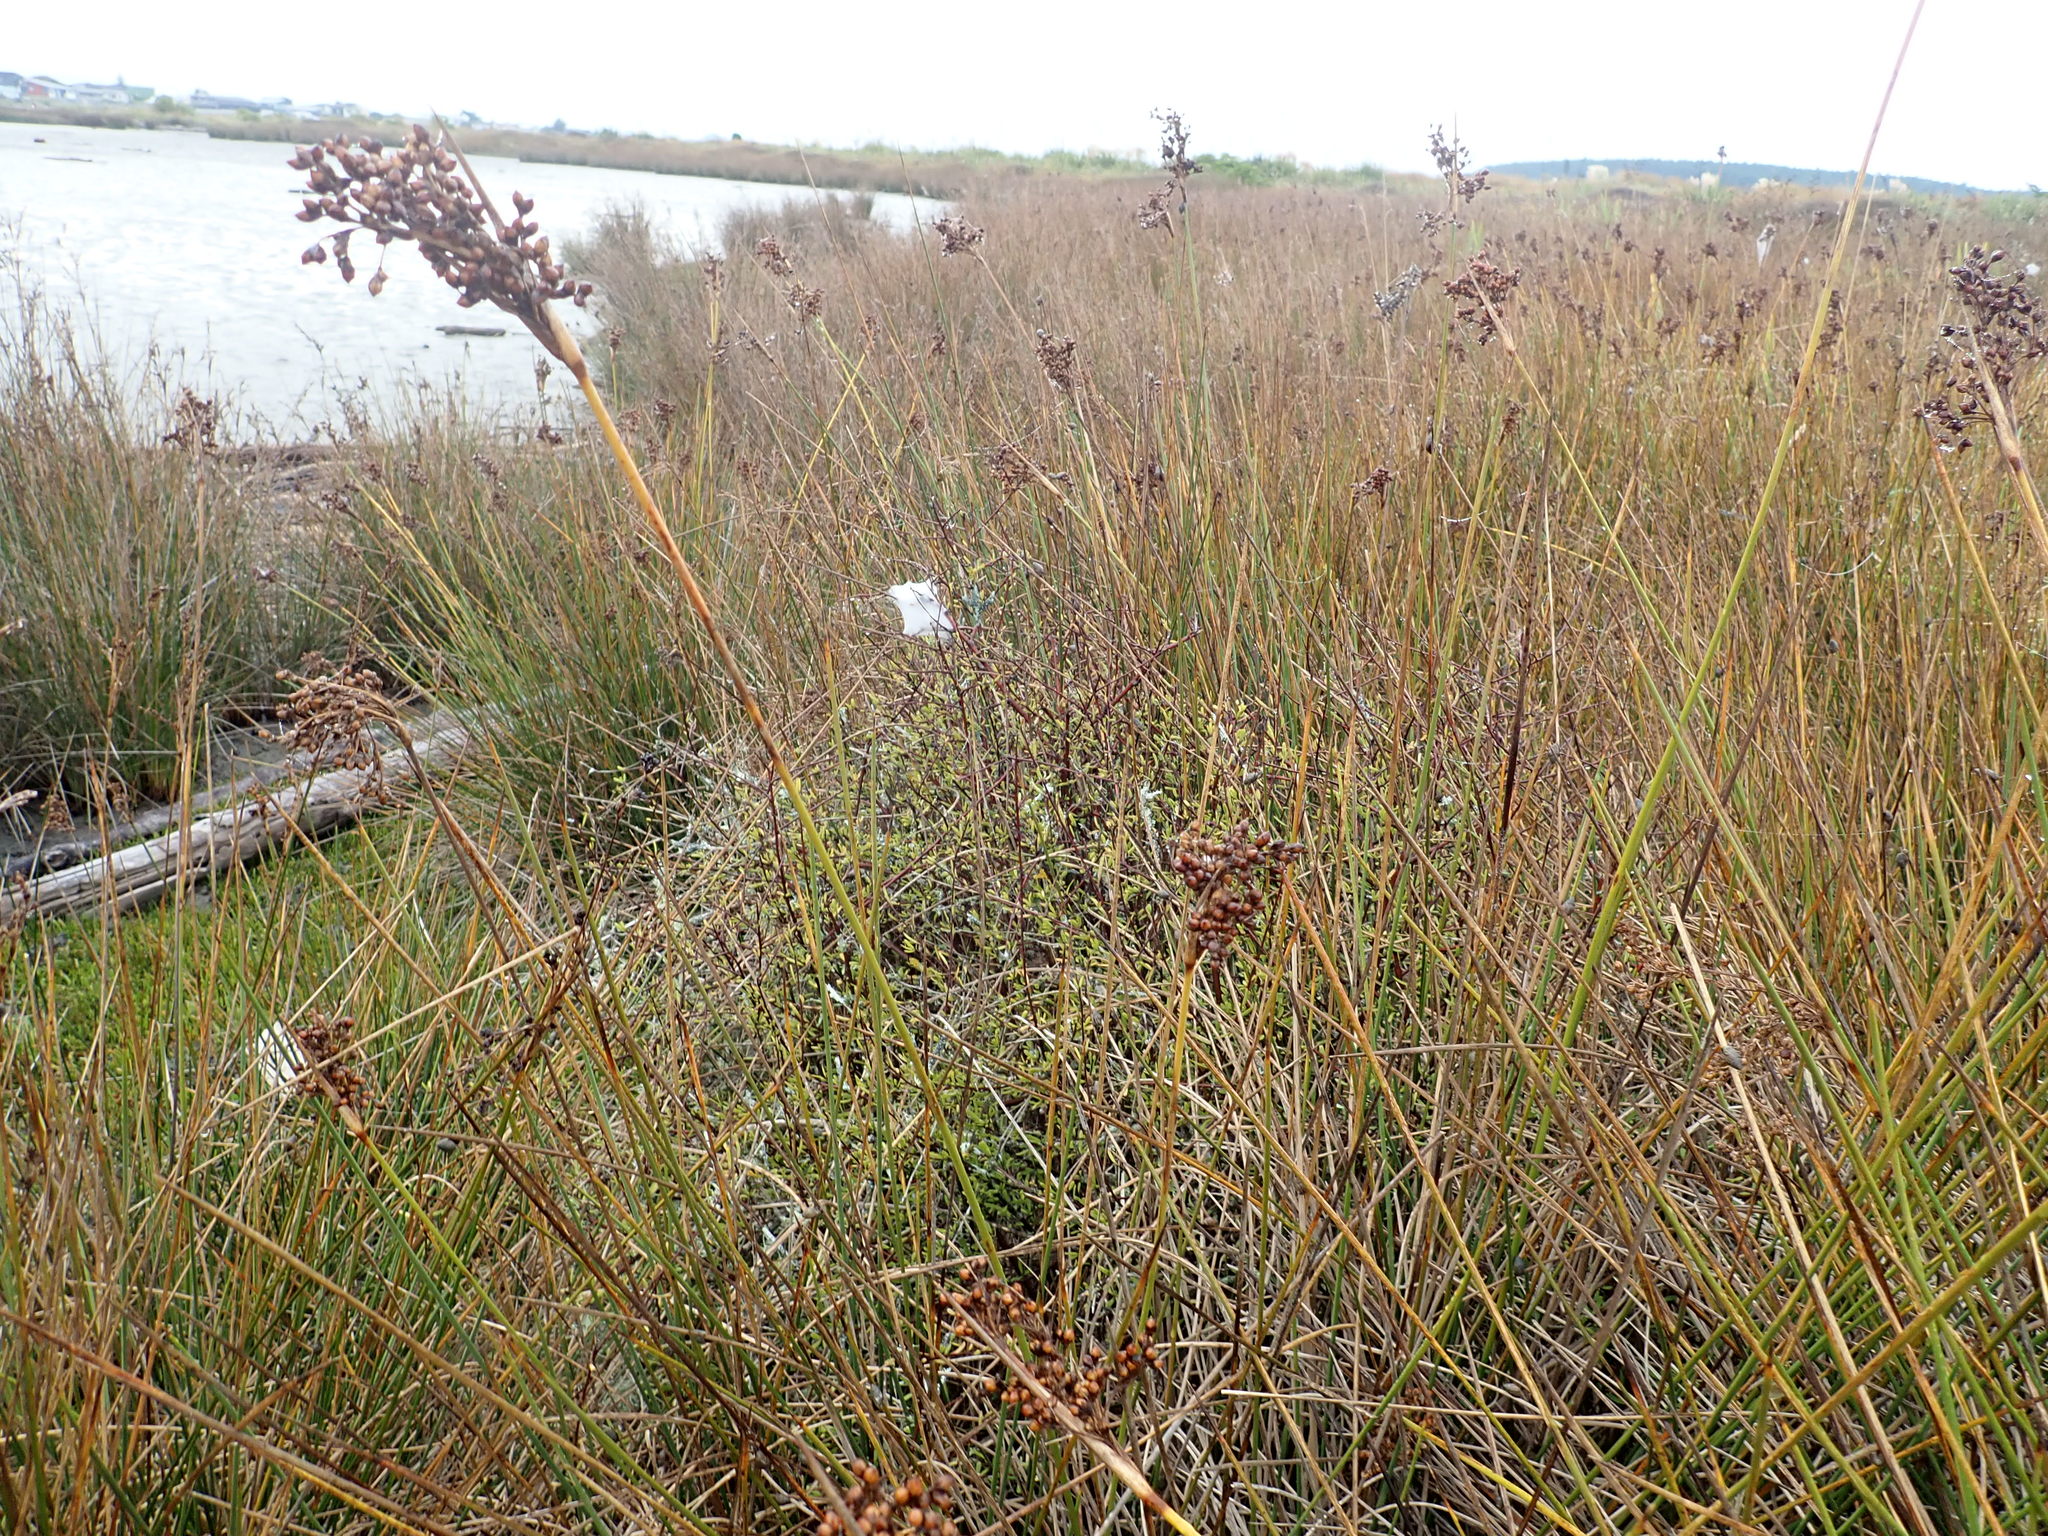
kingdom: Plantae
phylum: Tracheophyta
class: Magnoliopsida
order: Gentianales
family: Rubiaceae
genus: Coprosma
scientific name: Coprosma propinqua
